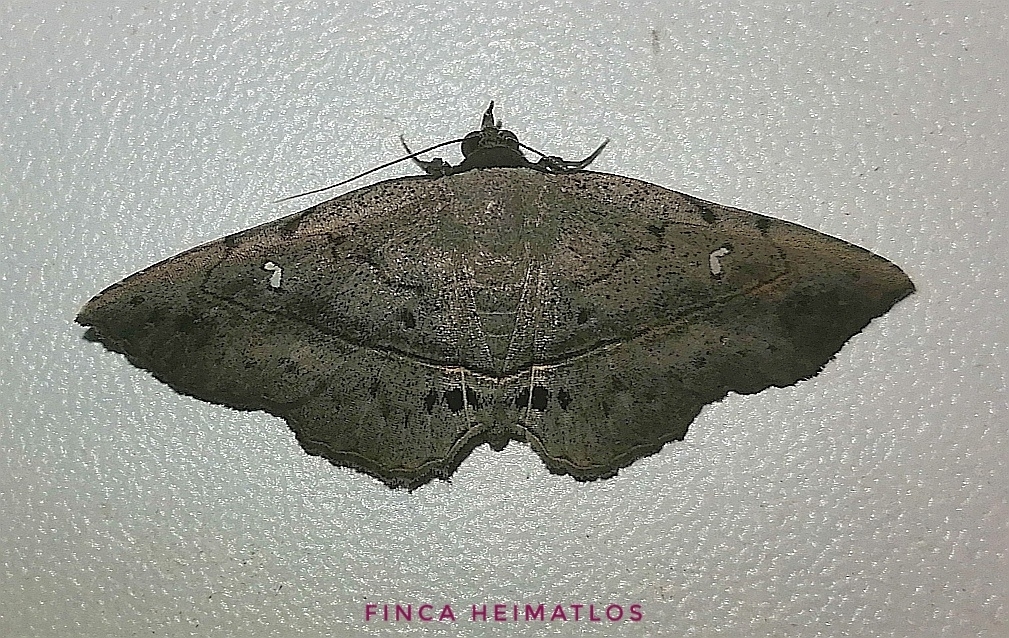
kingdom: Animalia
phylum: Arthropoda
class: Insecta
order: Lepidoptera
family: Erebidae
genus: Renodes
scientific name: Renodes vulgaris
